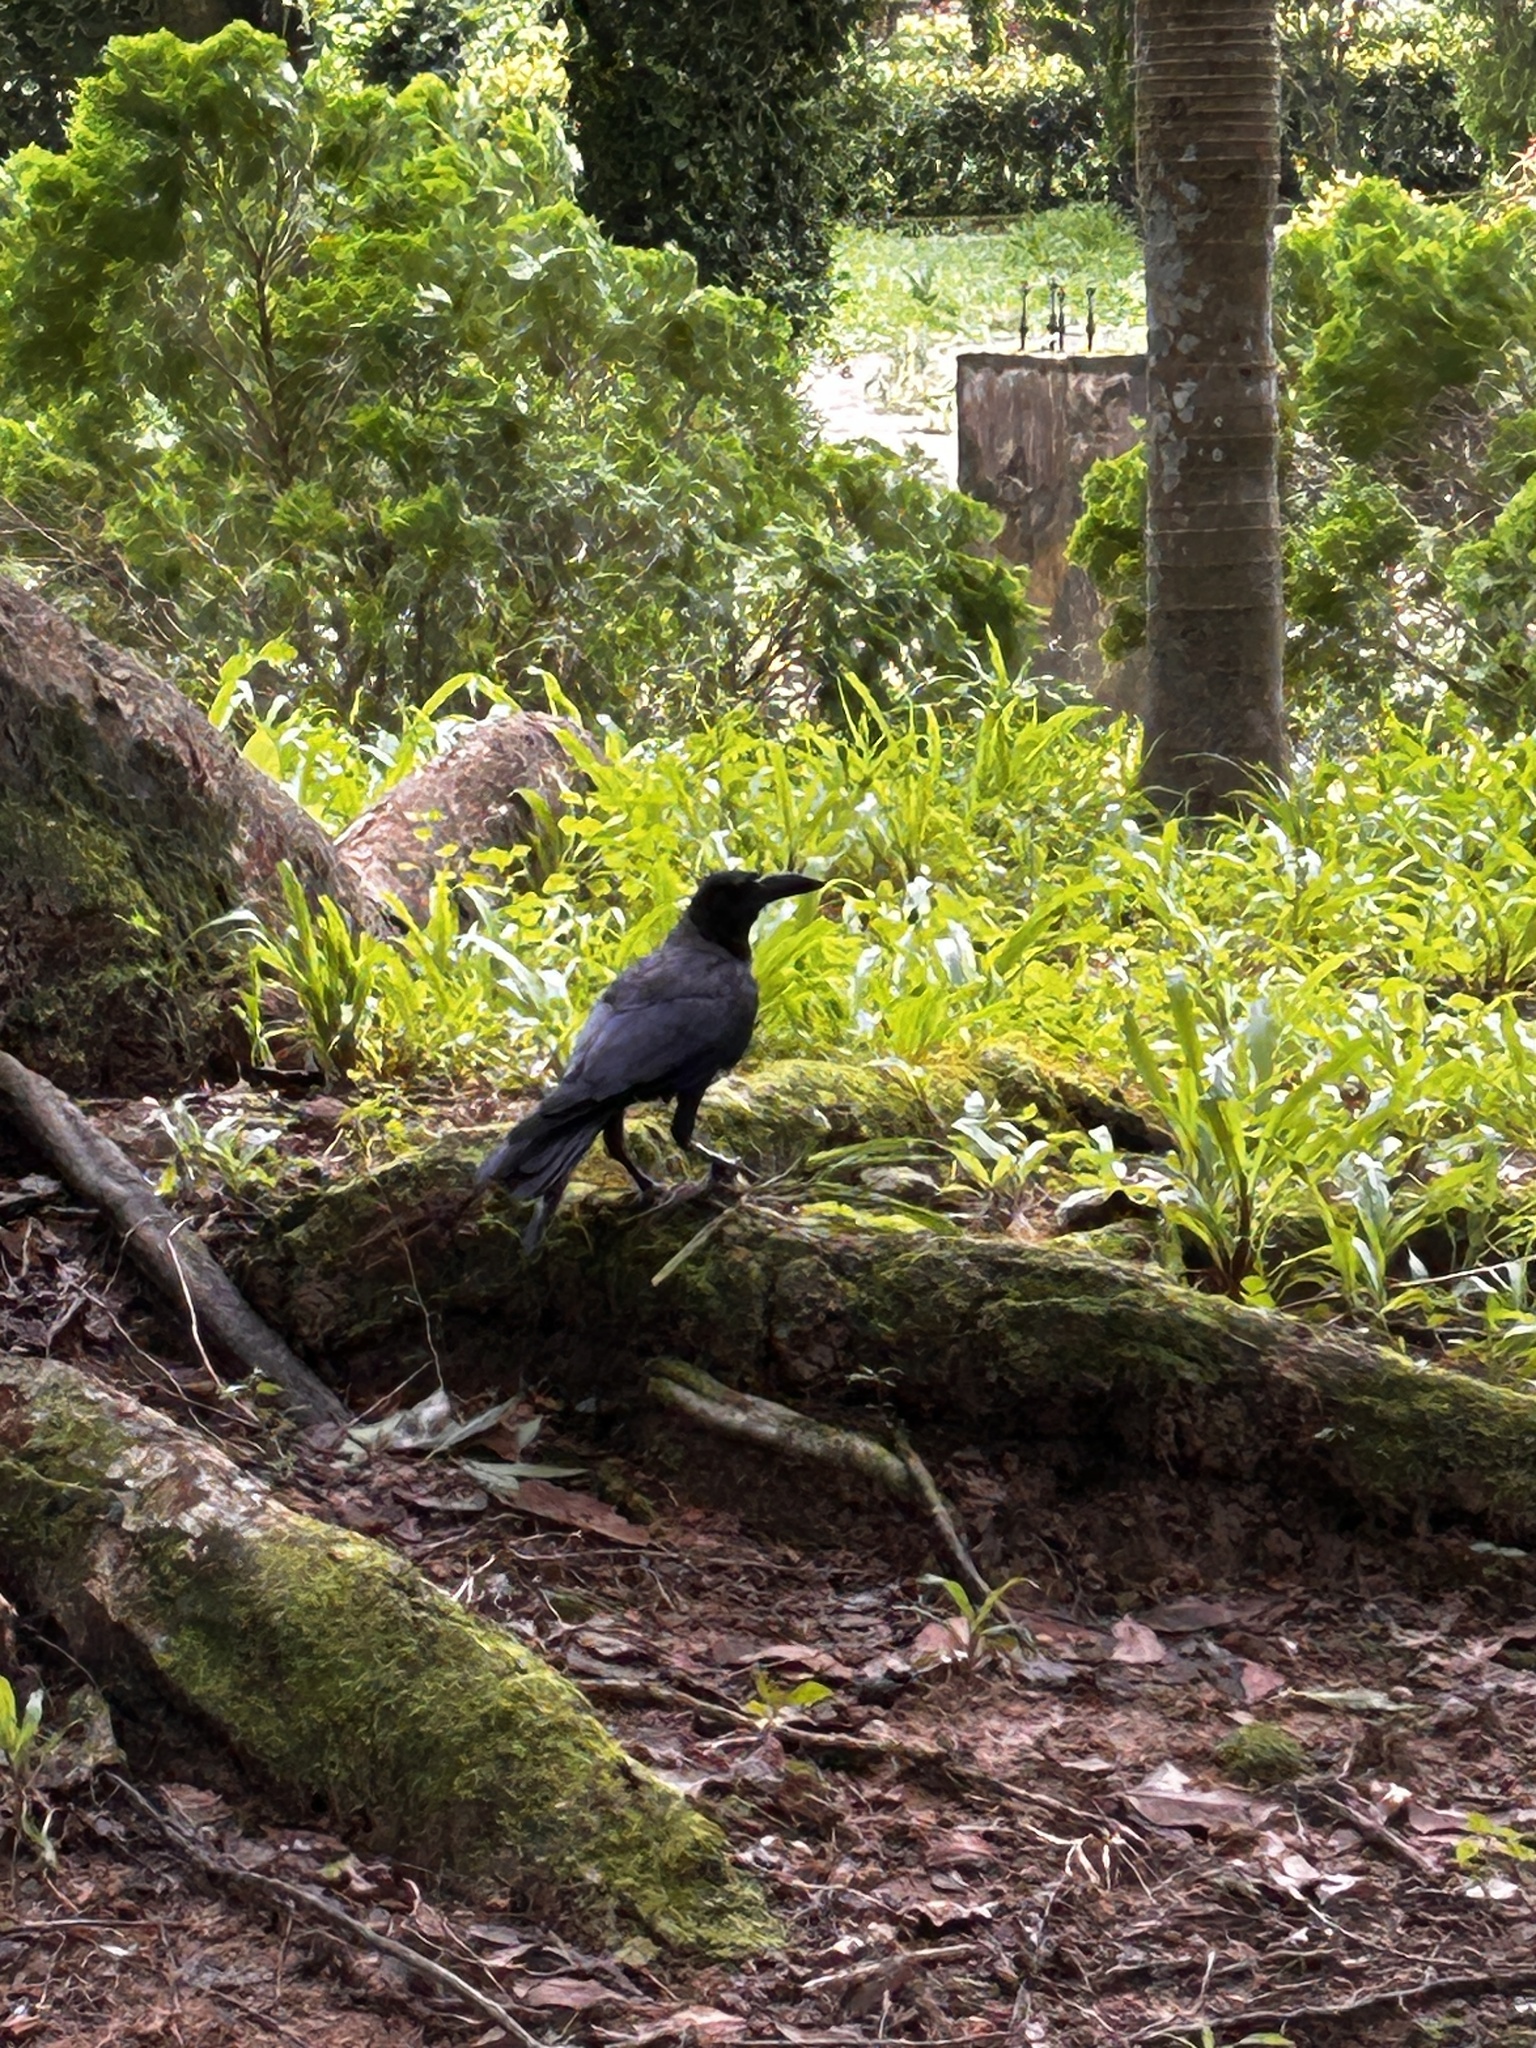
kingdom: Animalia
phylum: Chordata
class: Aves
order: Passeriformes
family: Corvidae
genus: Corvus
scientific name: Corvus splendens
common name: House crow
